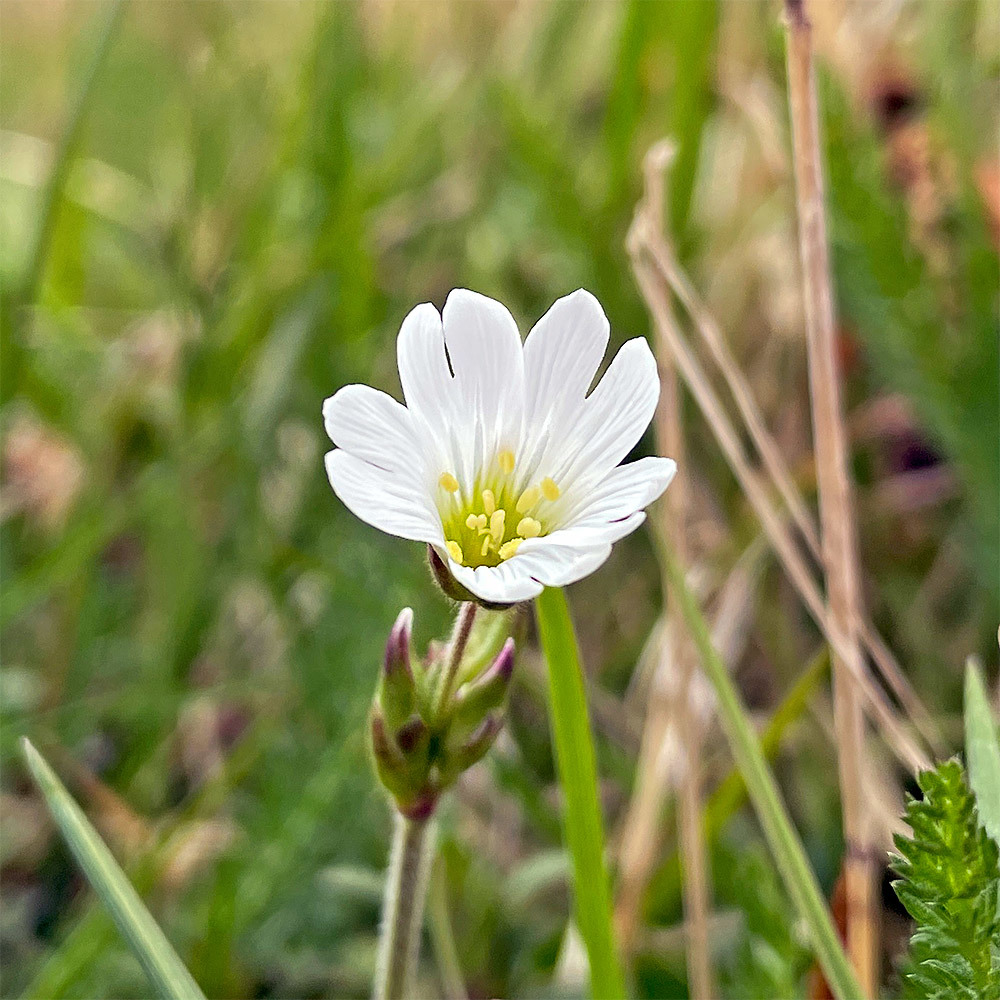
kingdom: Plantae
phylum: Tracheophyta
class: Magnoliopsida
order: Caryophyllales
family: Caryophyllaceae
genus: Cerastium
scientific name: Cerastium arvense
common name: Field mouse-ear
